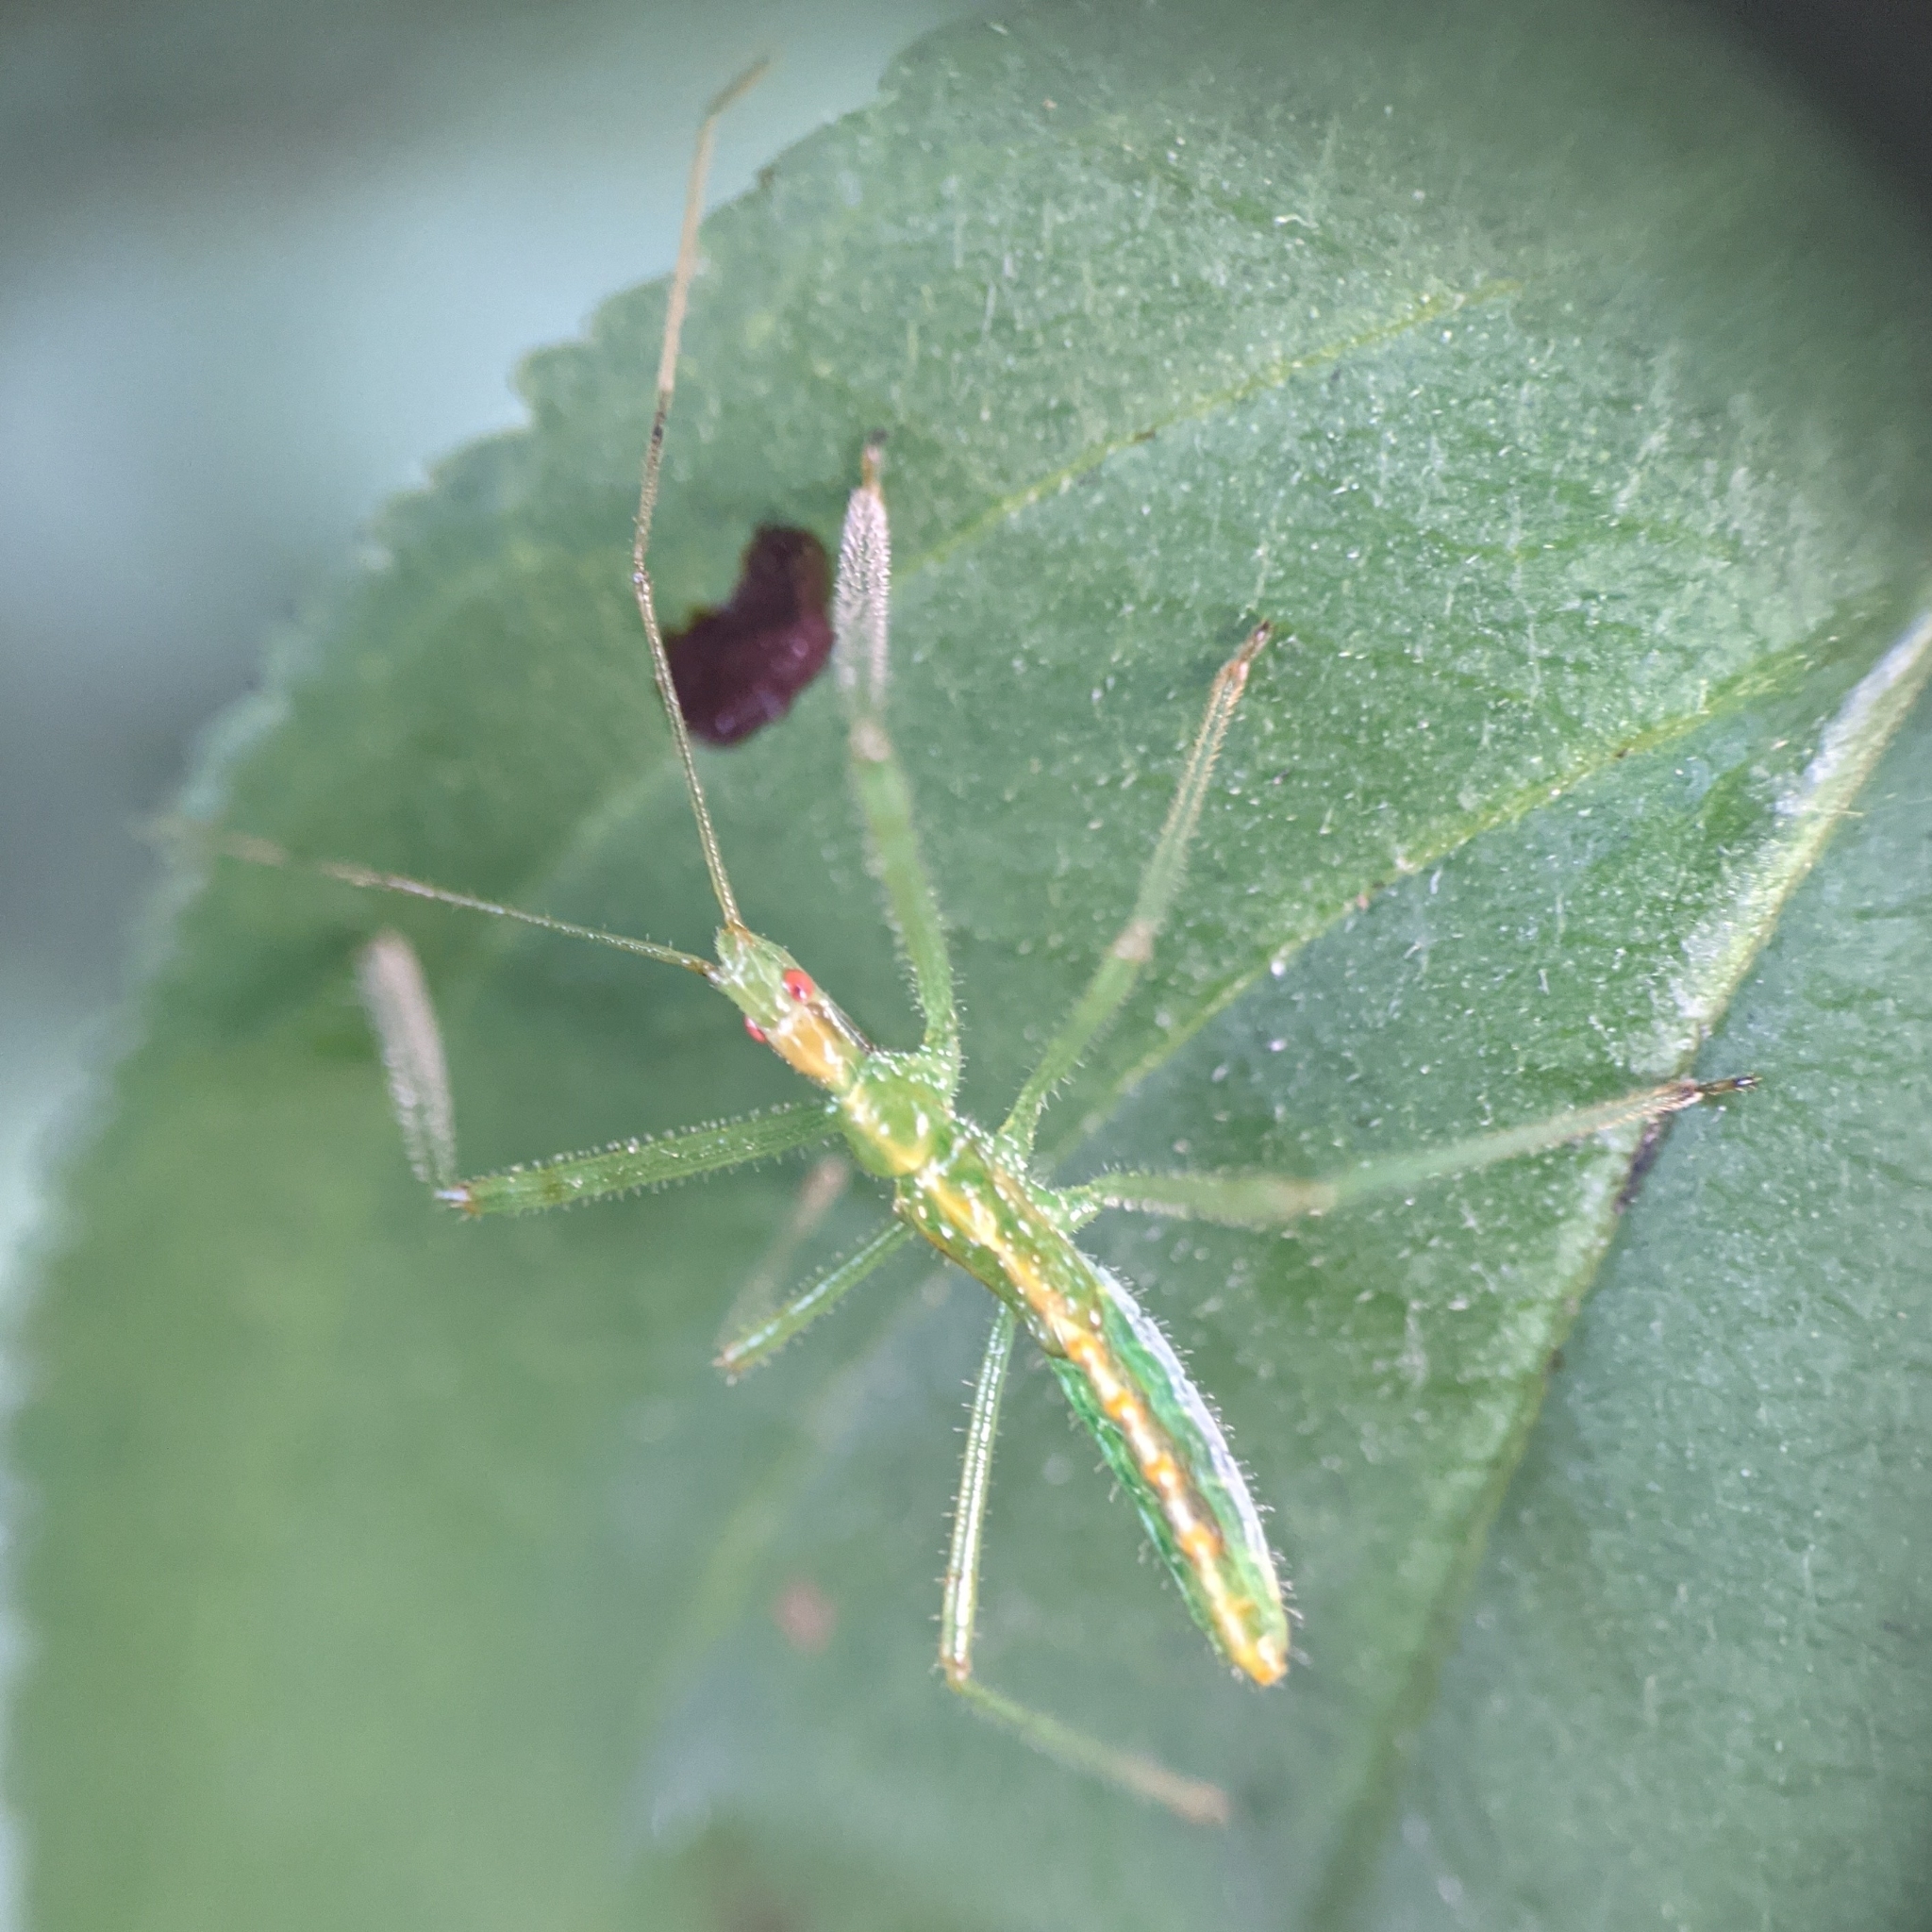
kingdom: Animalia
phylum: Arthropoda
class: Insecta
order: Hemiptera
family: Reduviidae
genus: Zelus
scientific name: Zelus luridus
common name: Pale green assassin bug
